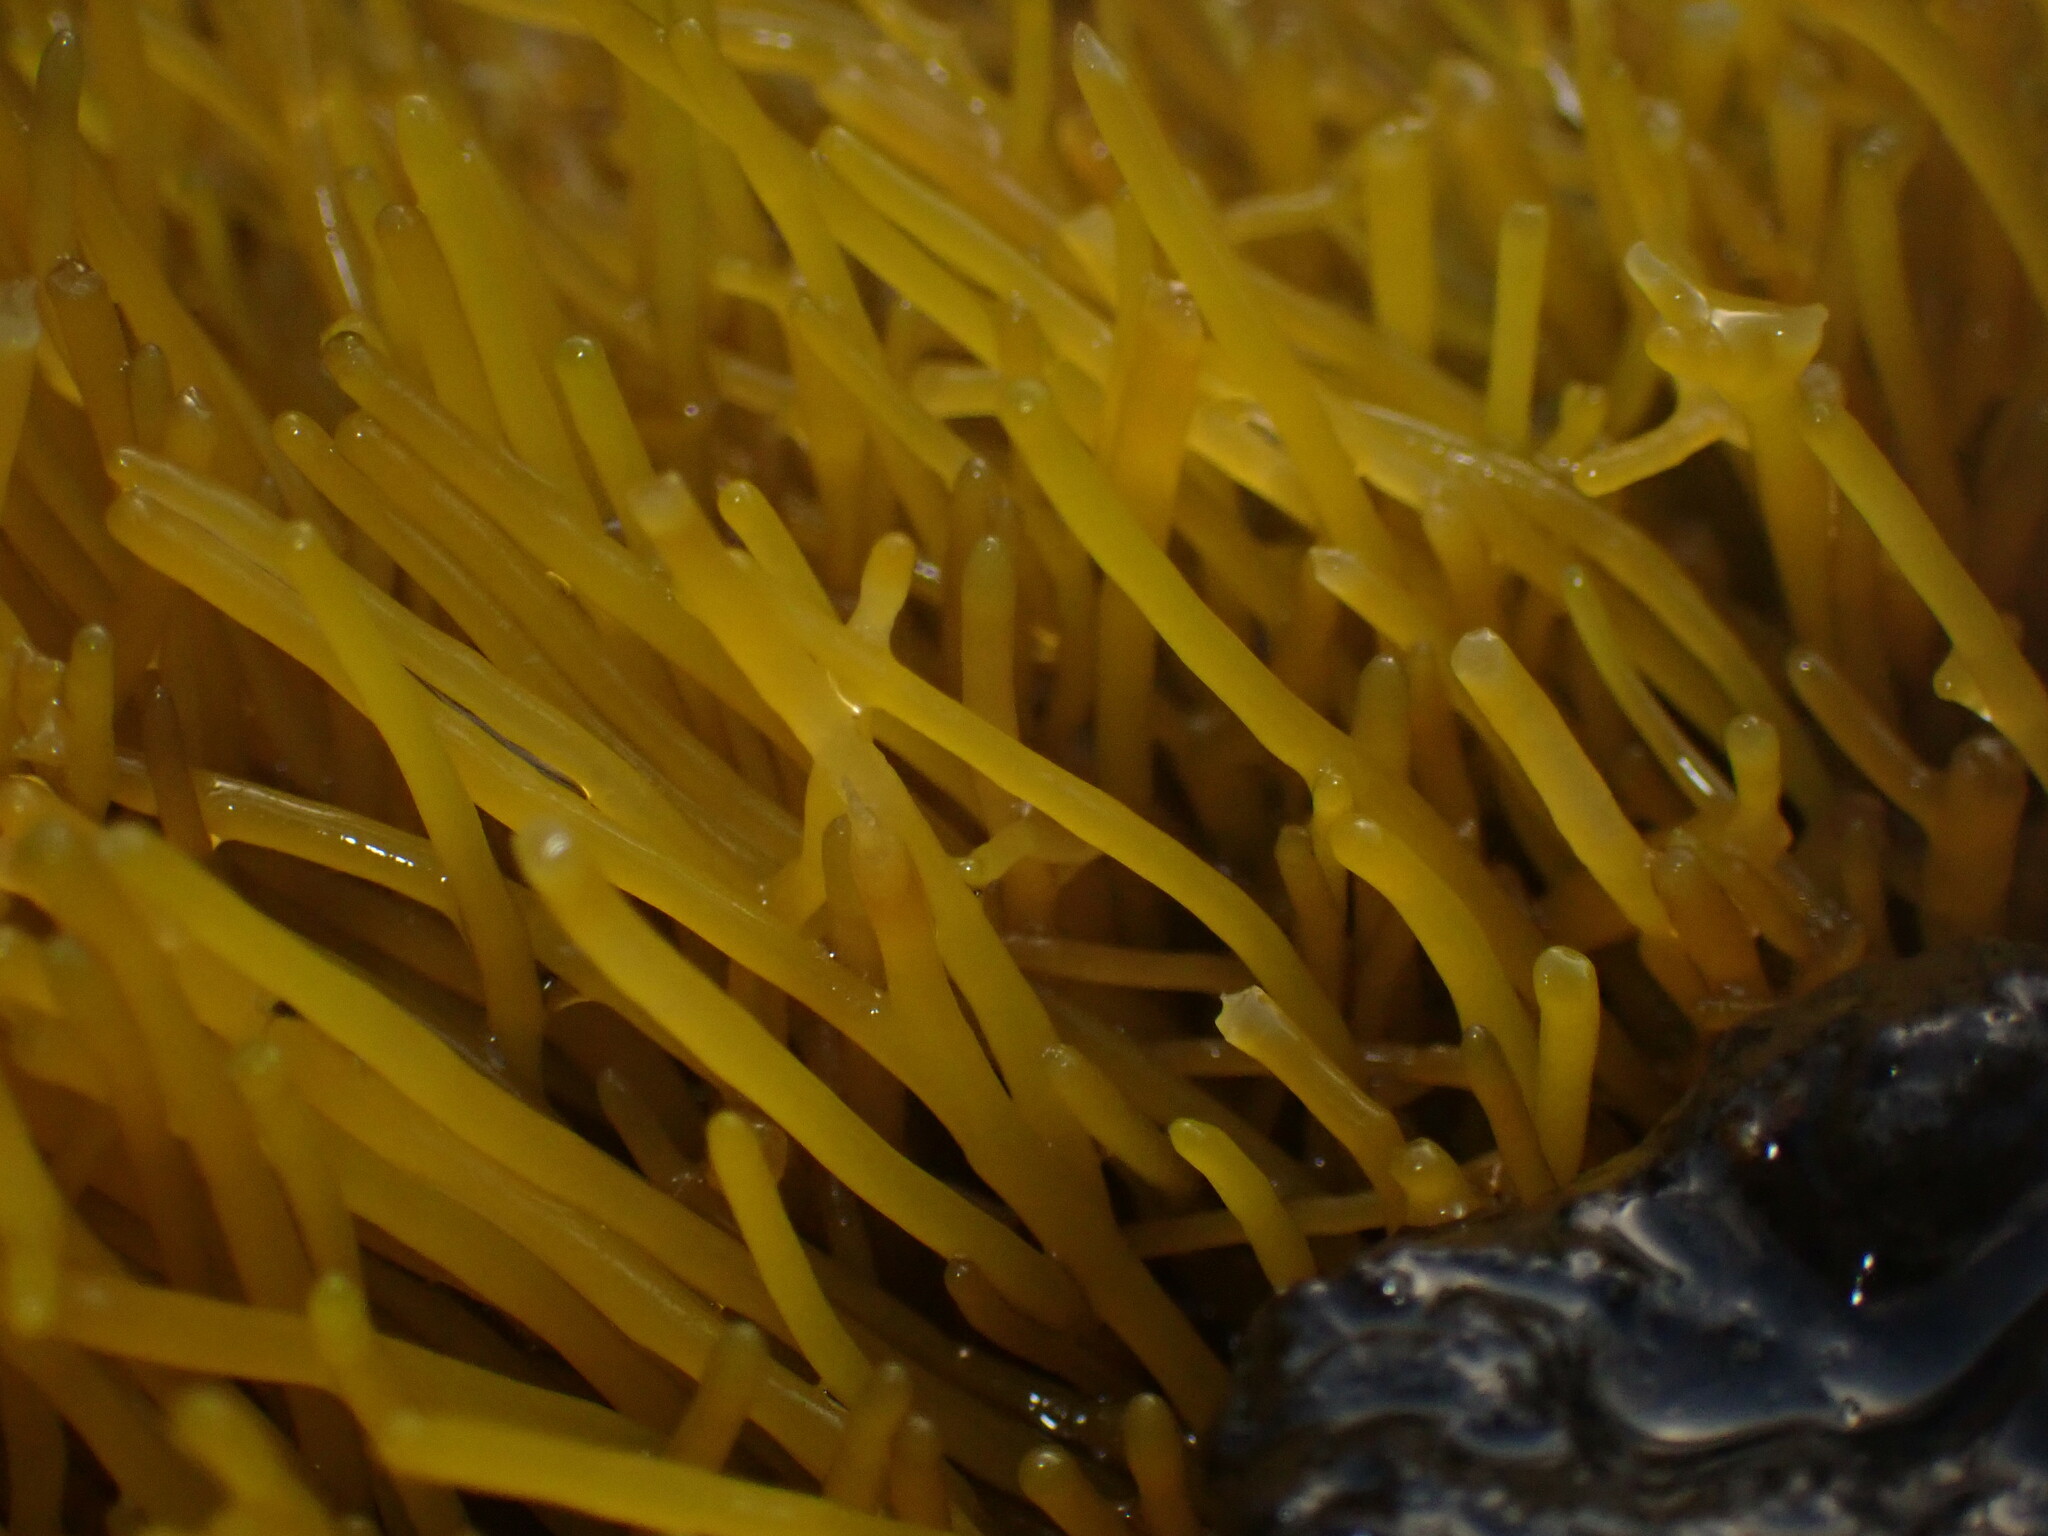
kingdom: Plantae
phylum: Rhodophyta
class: Florideophyceae
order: Gigartinales
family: Phyllophoraceae
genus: Gymnogongrus
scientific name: Gymnogongrus durvillei
